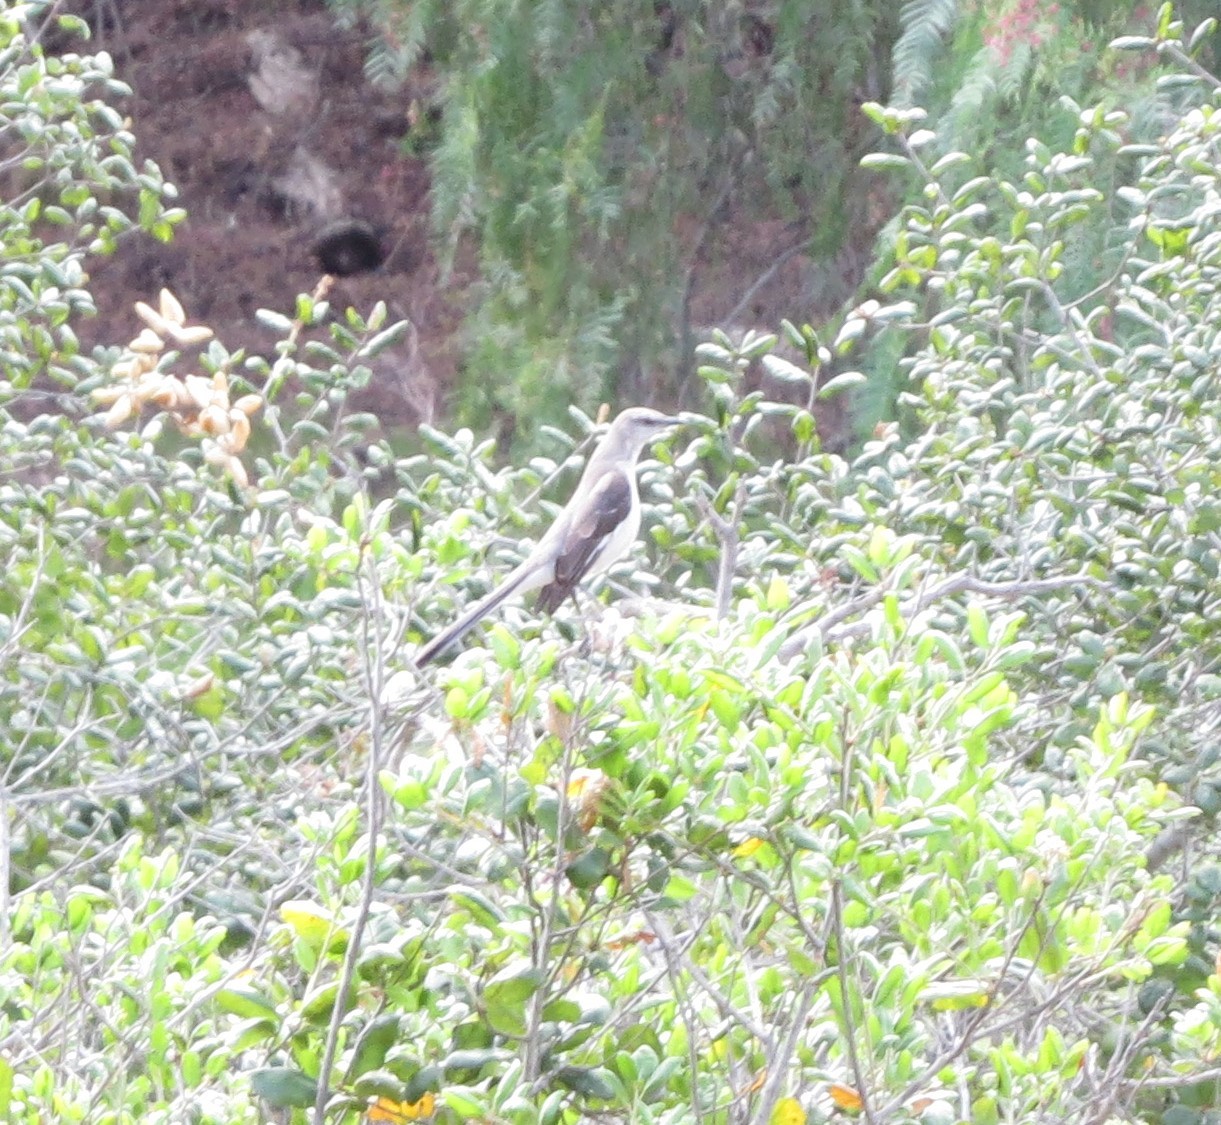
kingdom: Animalia
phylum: Chordata
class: Aves
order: Passeriformes
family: Mimidae
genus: Mimus
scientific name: Mimus polyglottos
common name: Northern mockingbird
